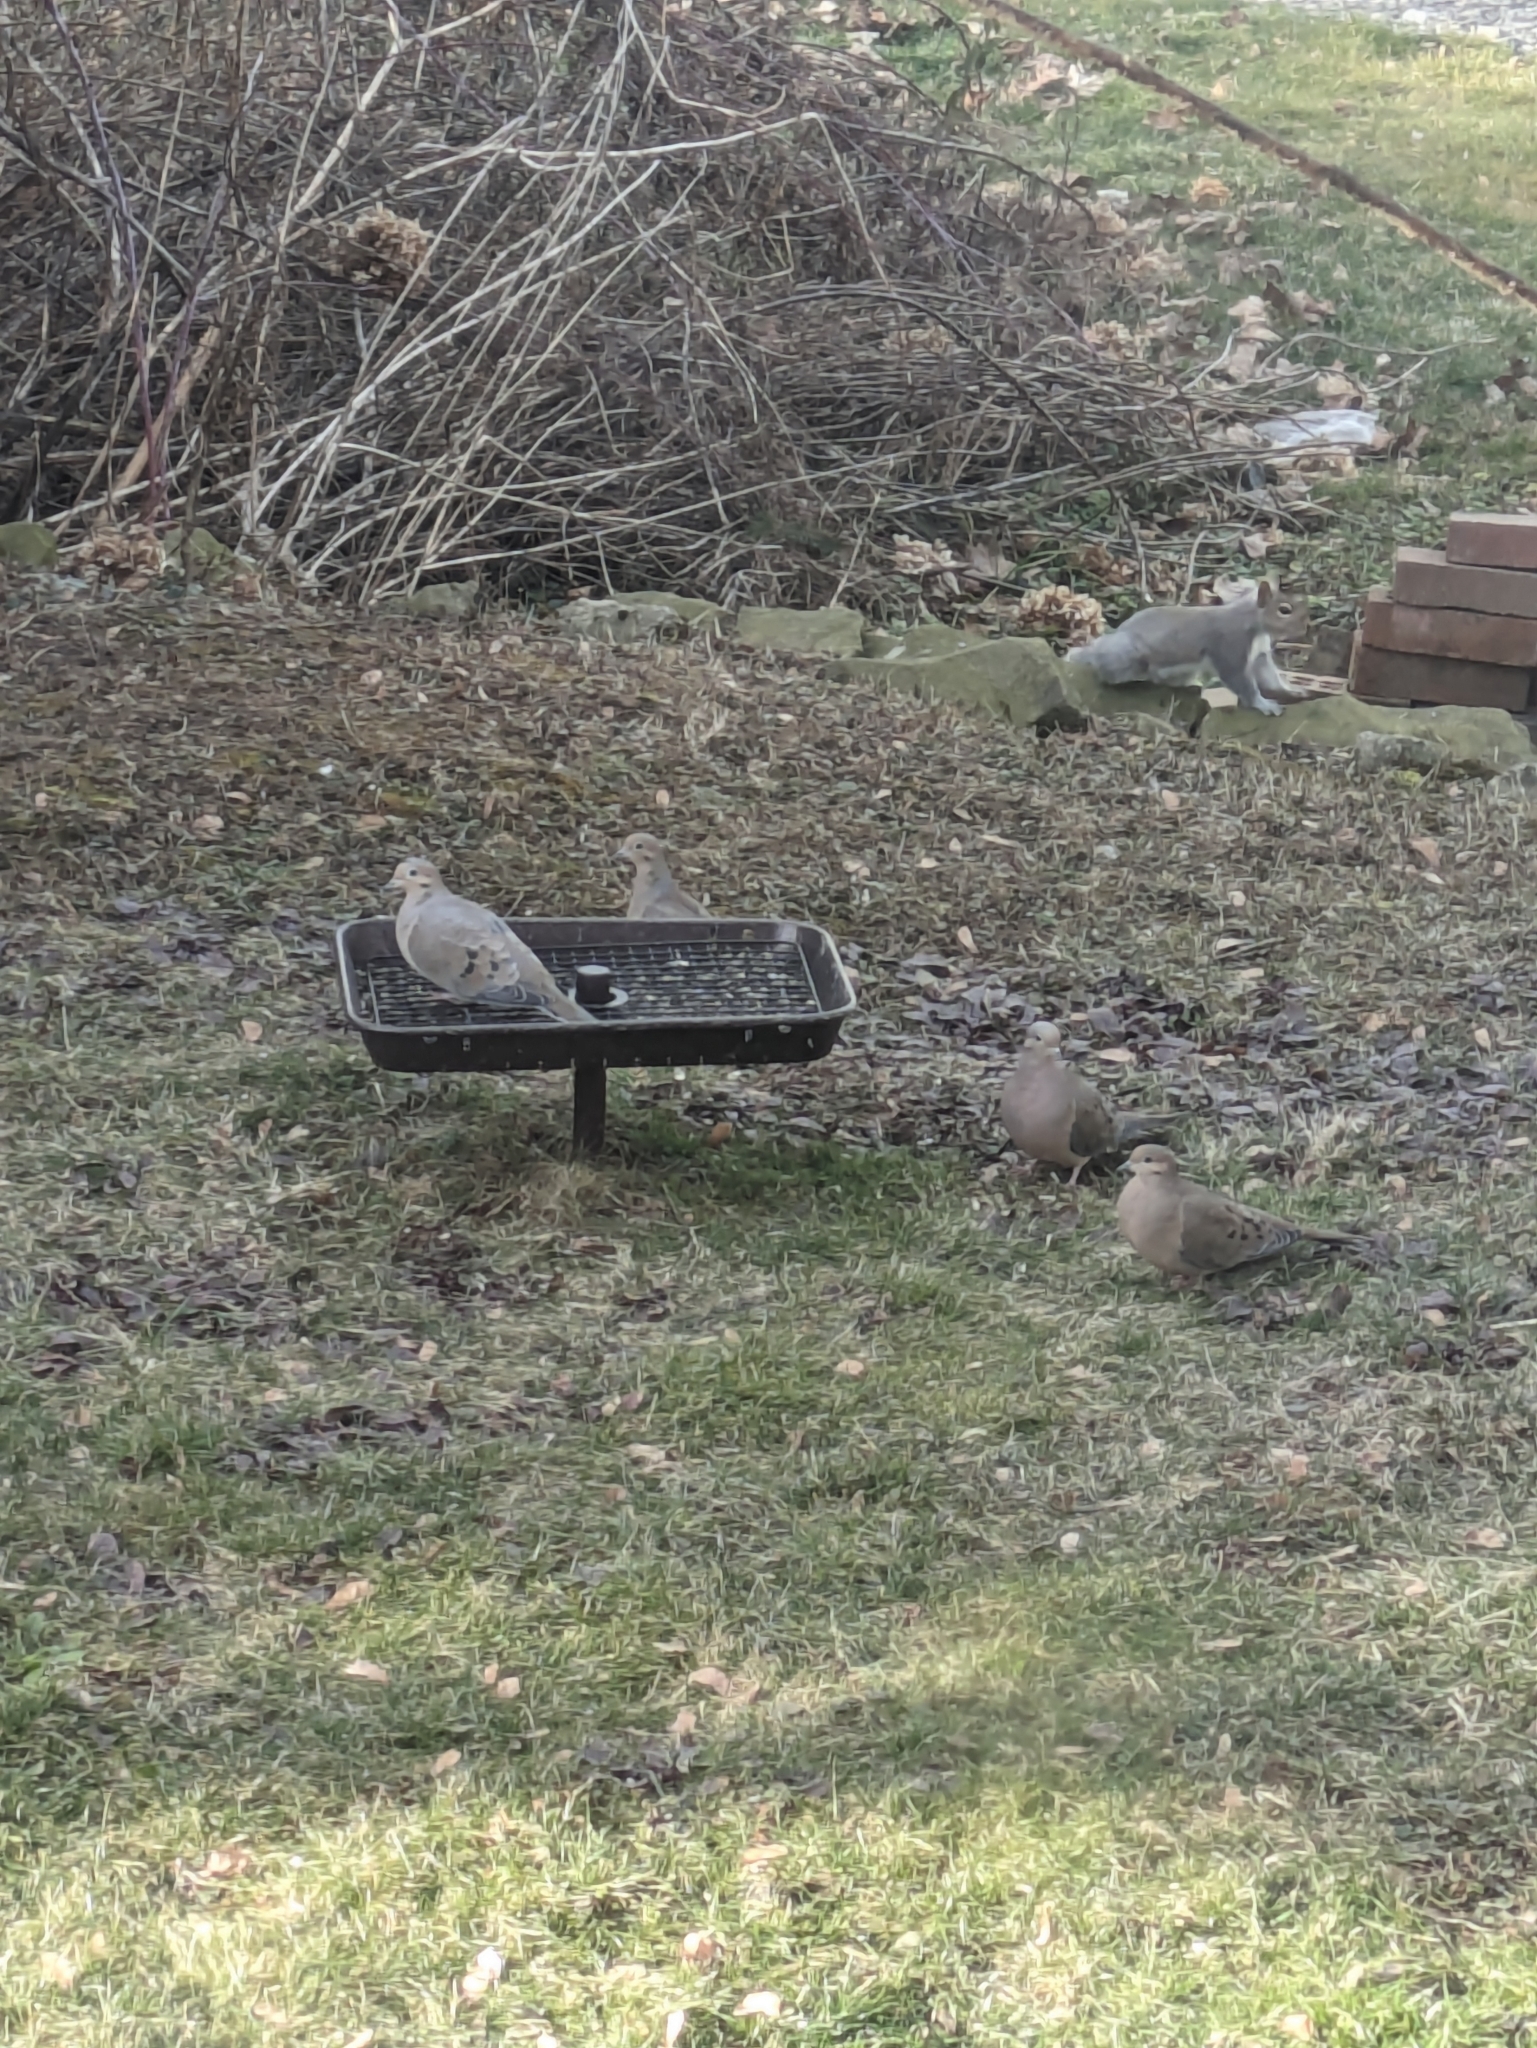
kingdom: Animalia
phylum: Chordata
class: Aves
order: Columbiformes
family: Columbidae
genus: Zenaida
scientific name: Zenaida macroura
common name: Mourning dove
